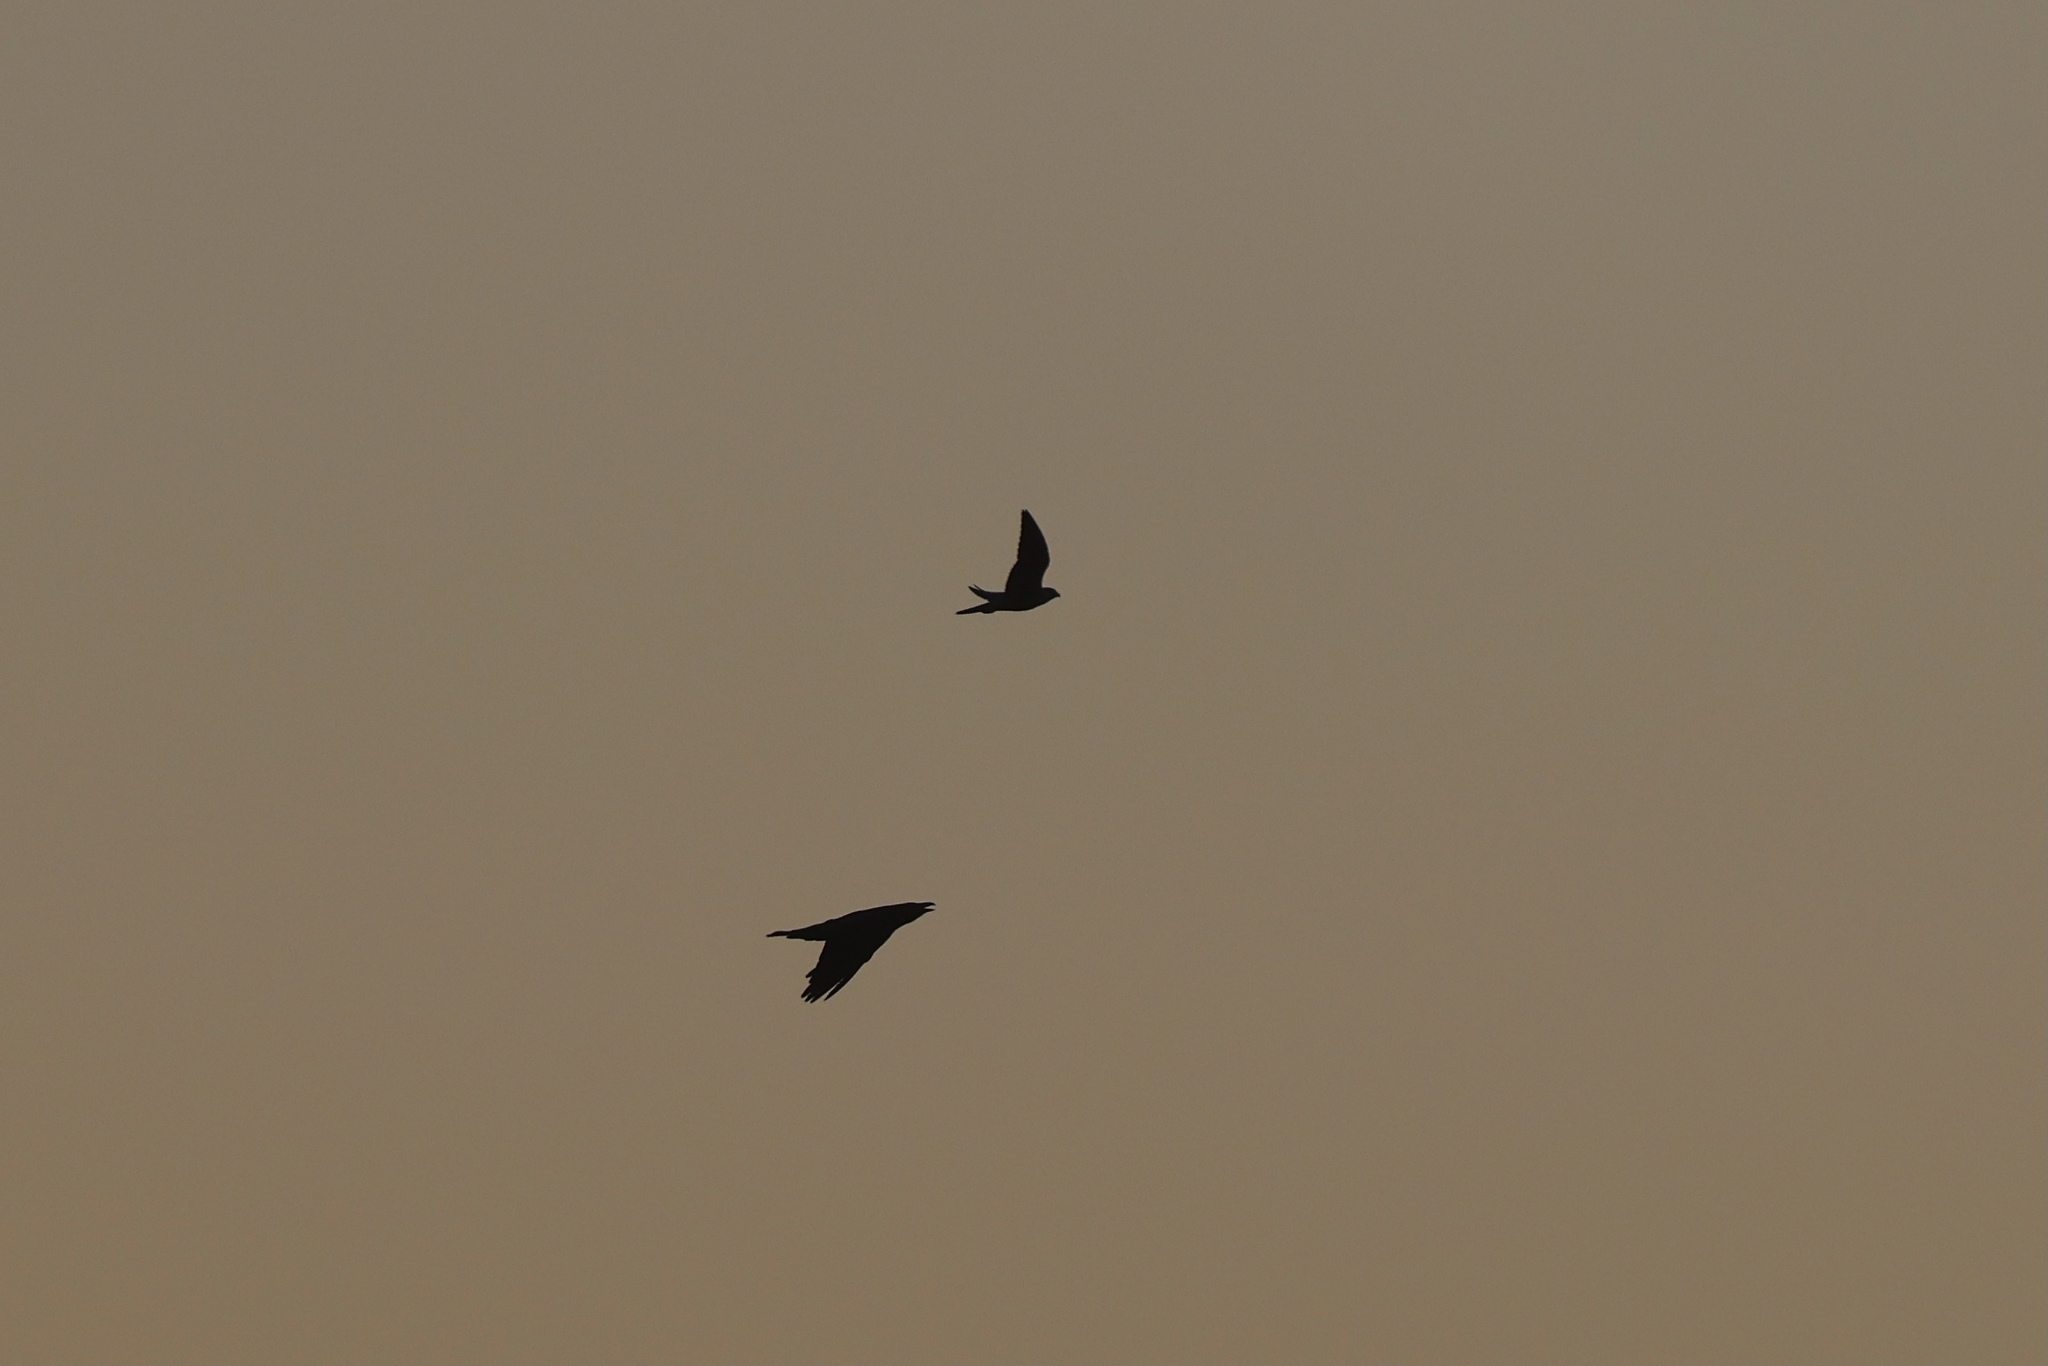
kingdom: Animalia
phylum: Chordata
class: Aves
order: Passeriformes
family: Corvidae
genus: Corvus
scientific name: Corvus corax
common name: Common raven
